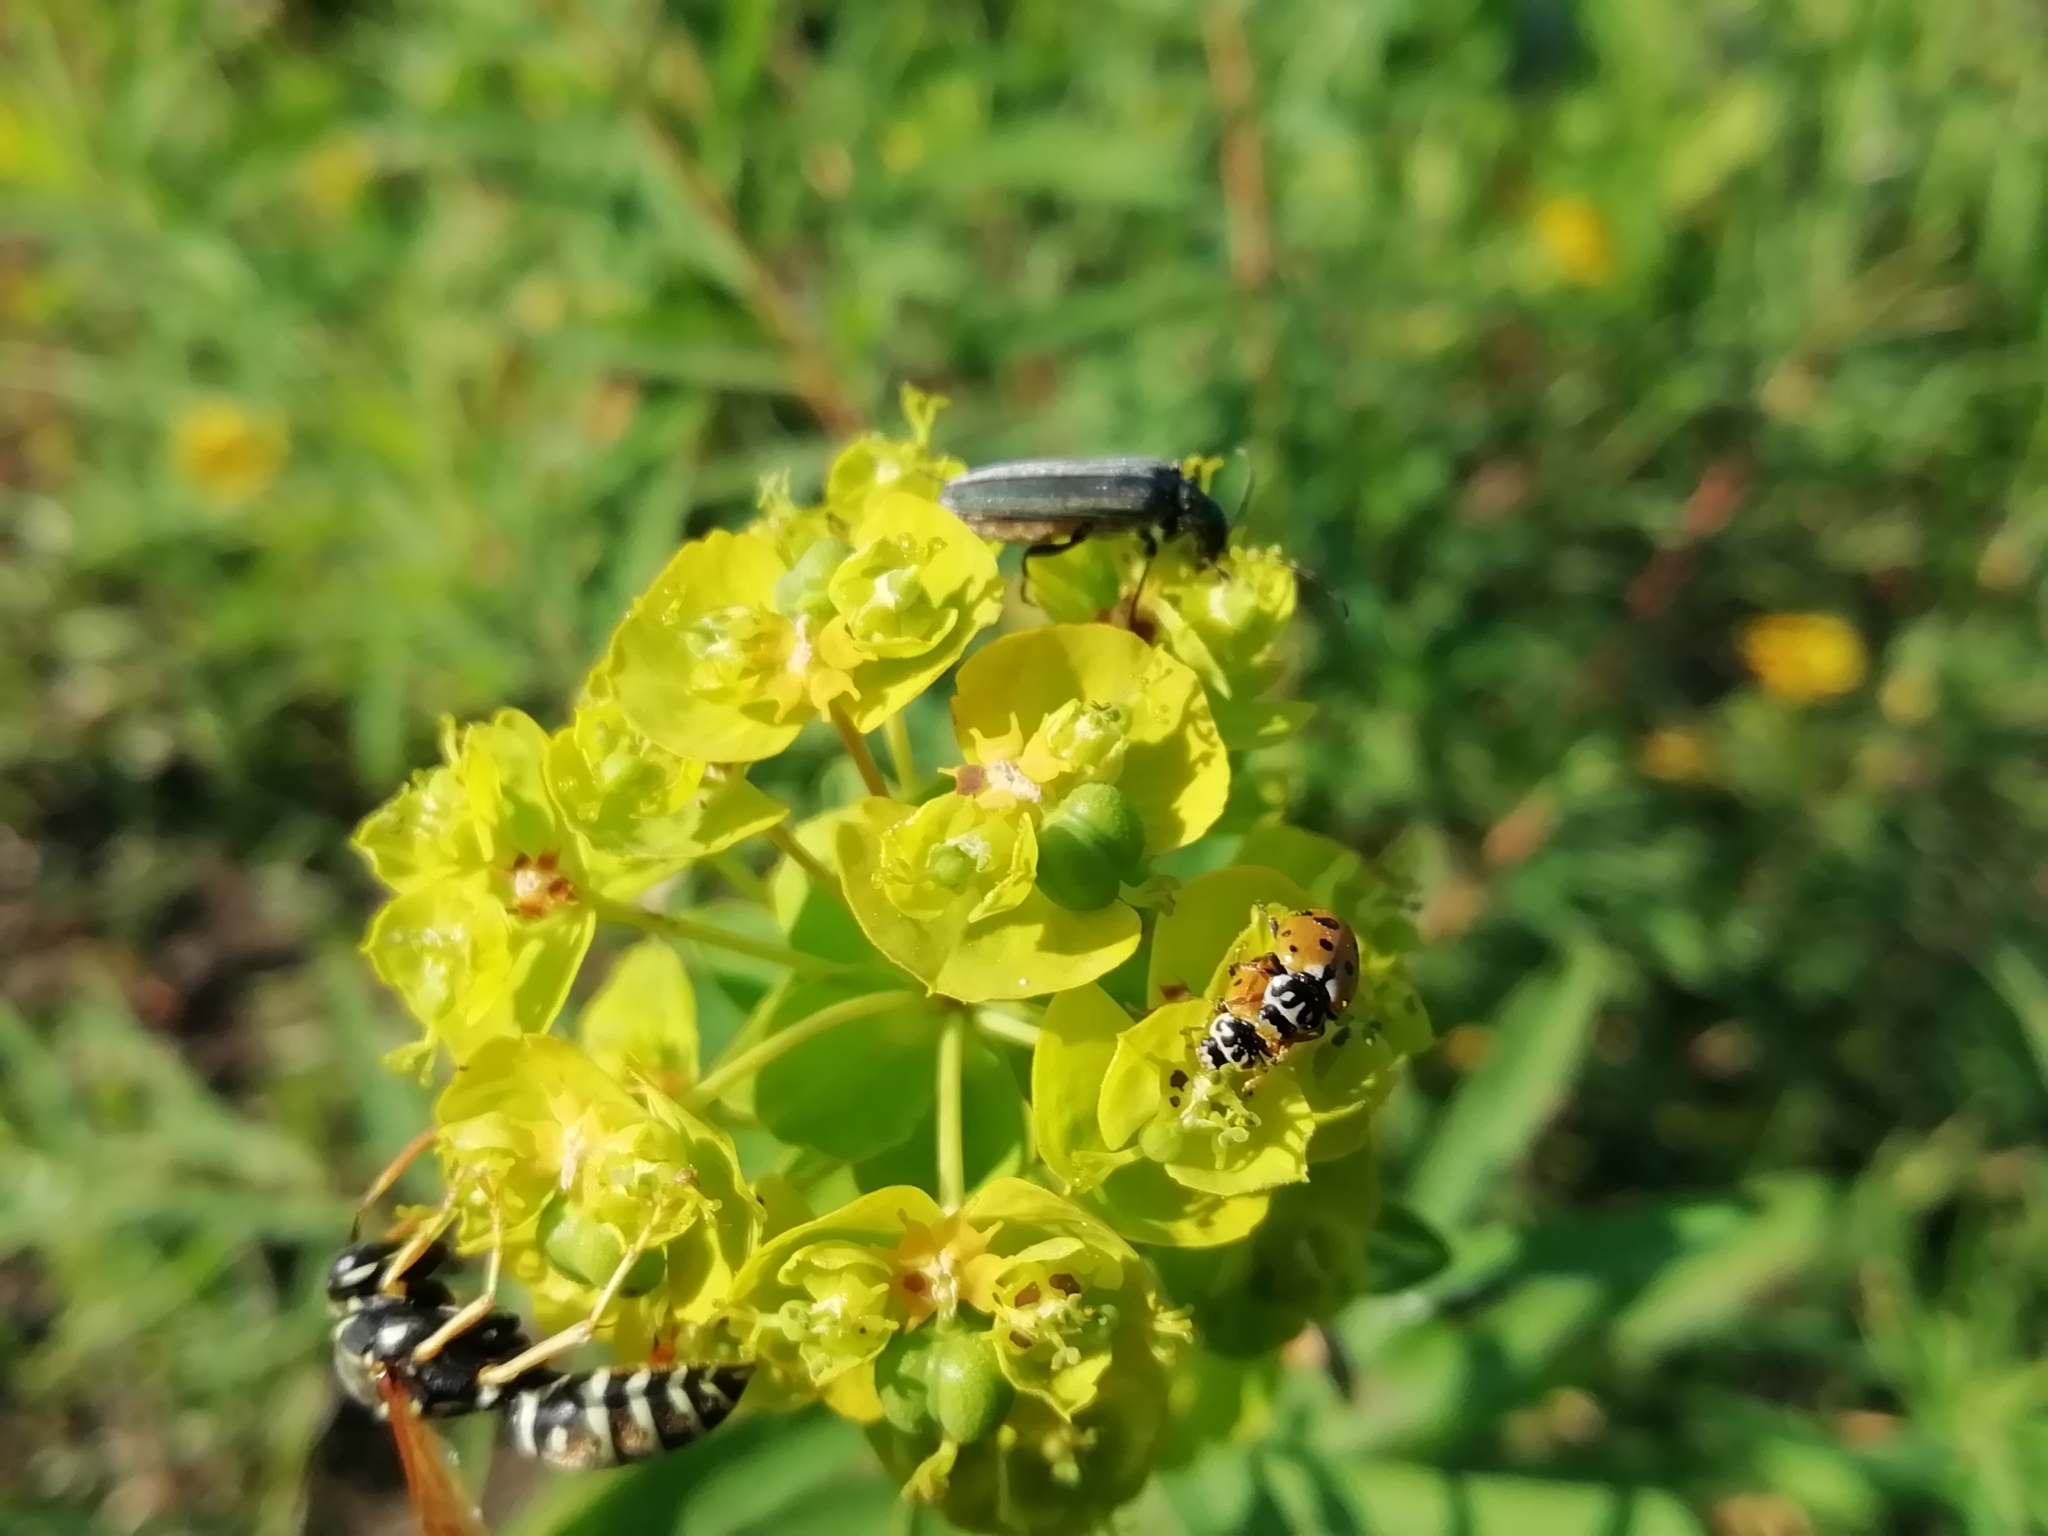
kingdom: Animalia
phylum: Arthropoda
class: Insecta
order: Coleoptera
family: Coccinellidae
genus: Hippodamia
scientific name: Hippodamia variegata
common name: Ladybird beetle
